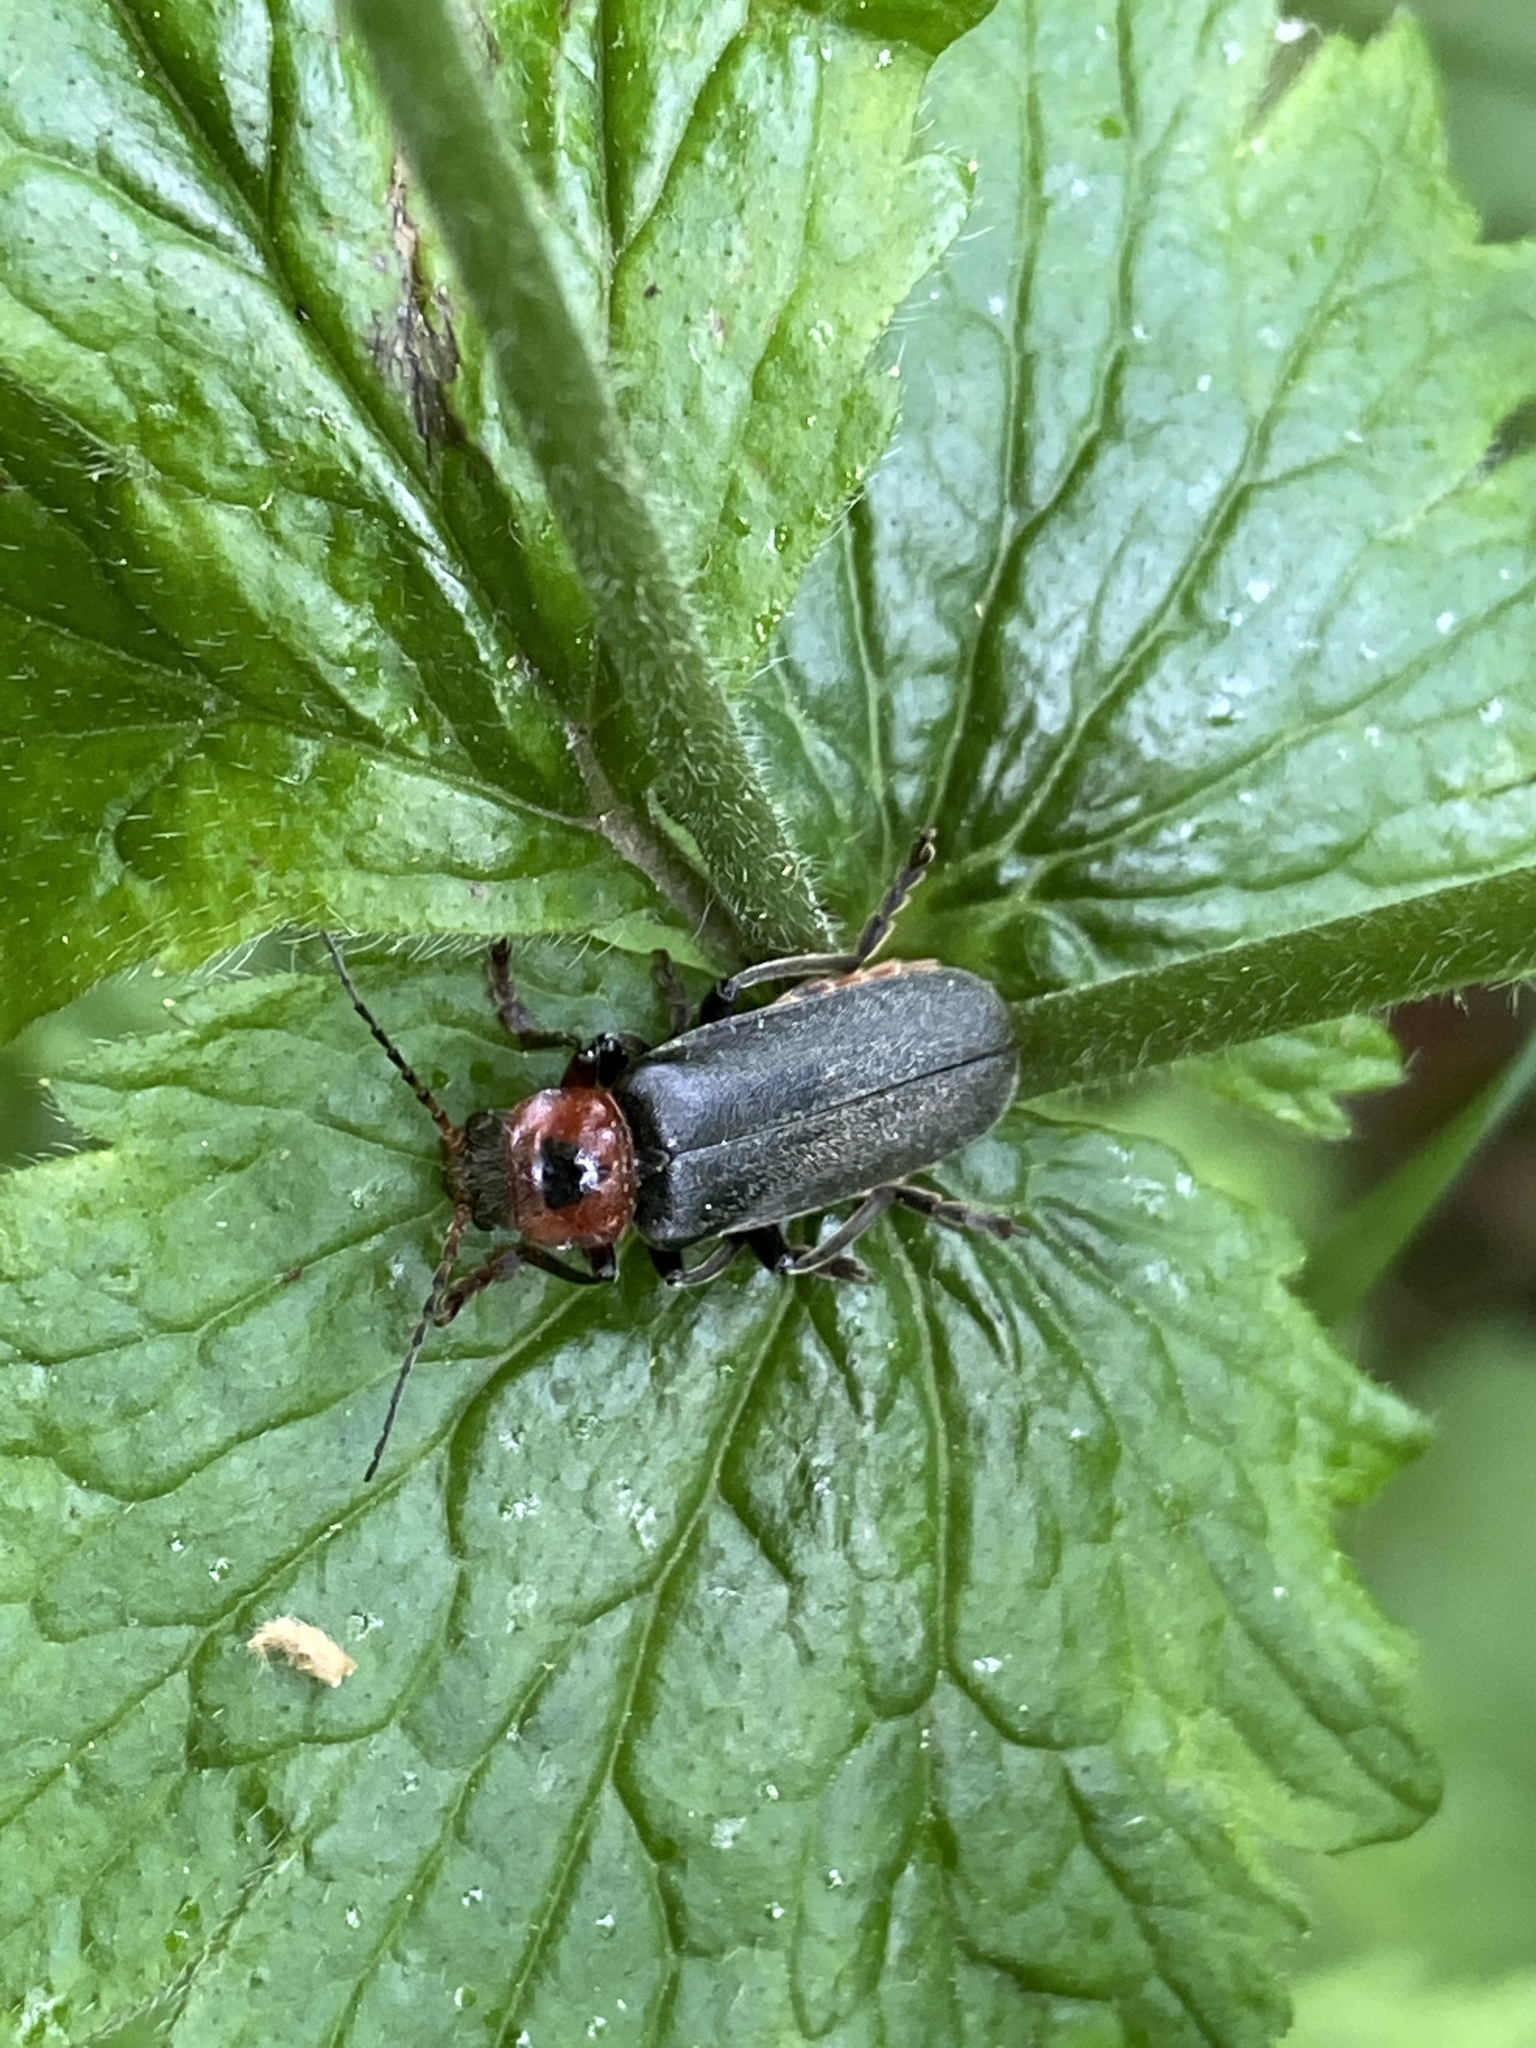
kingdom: Animalia
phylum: Arthropoda
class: Insecta
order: Coleoptera
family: Cantharidae
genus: Cantharis
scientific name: Cantharis rustica
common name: Soldier beetle
